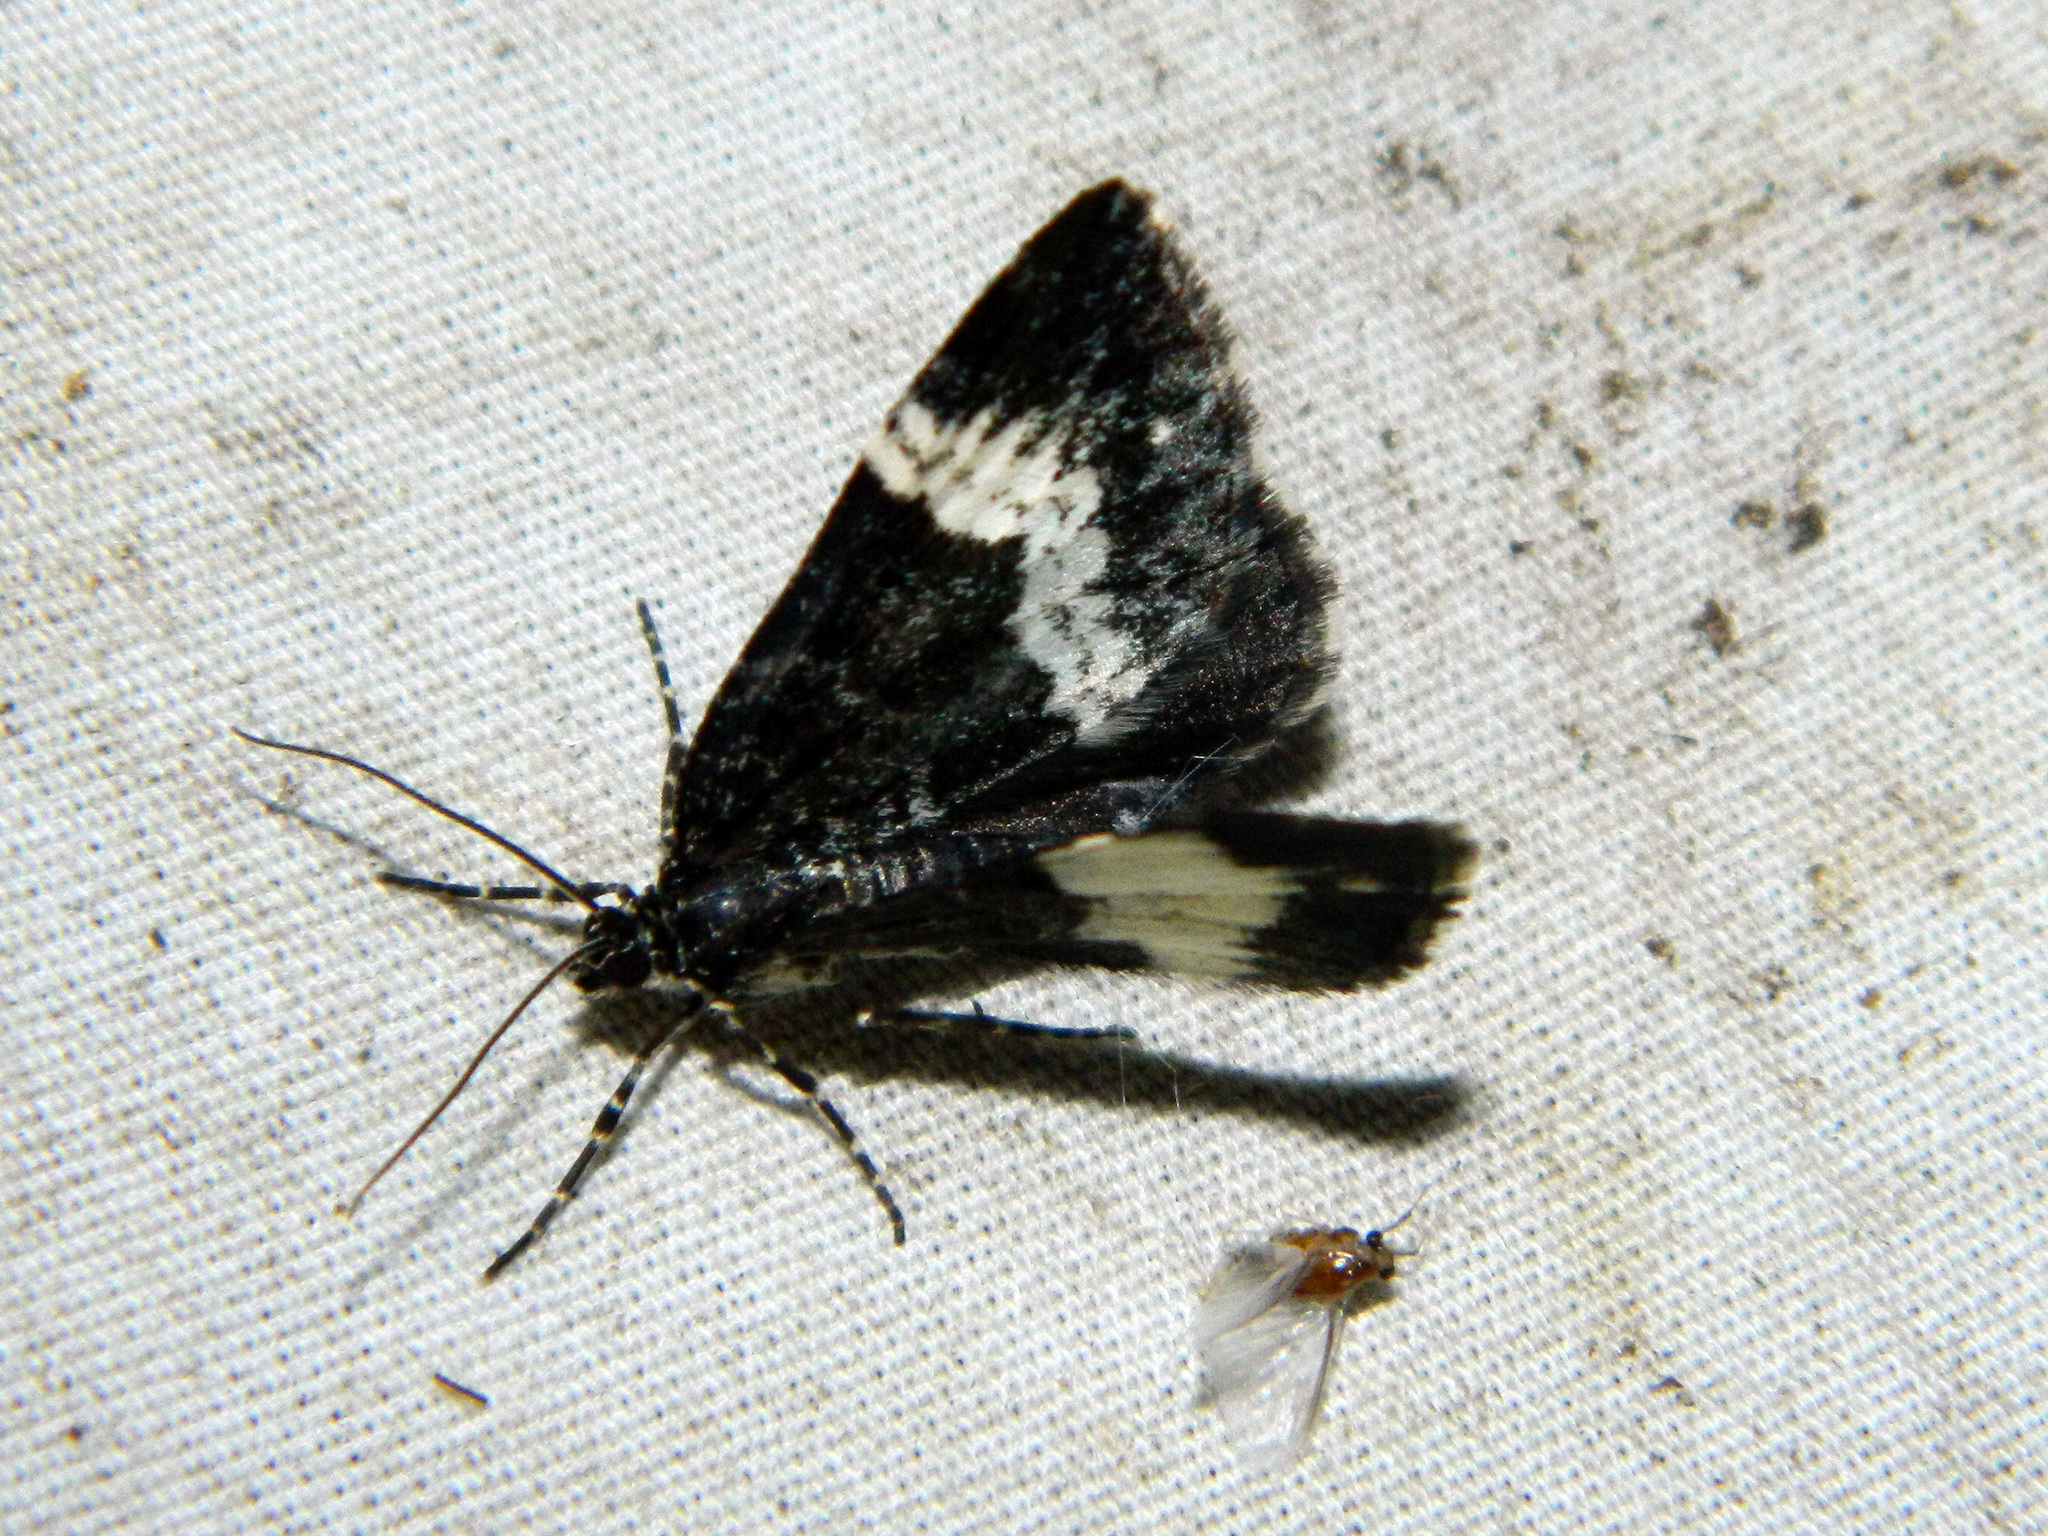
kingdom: Animalia
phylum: Arthropoda
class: Insecta
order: Lepidoptera
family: Geometridae
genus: Spargania
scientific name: Spargania luctuata
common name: White-banded carpet
